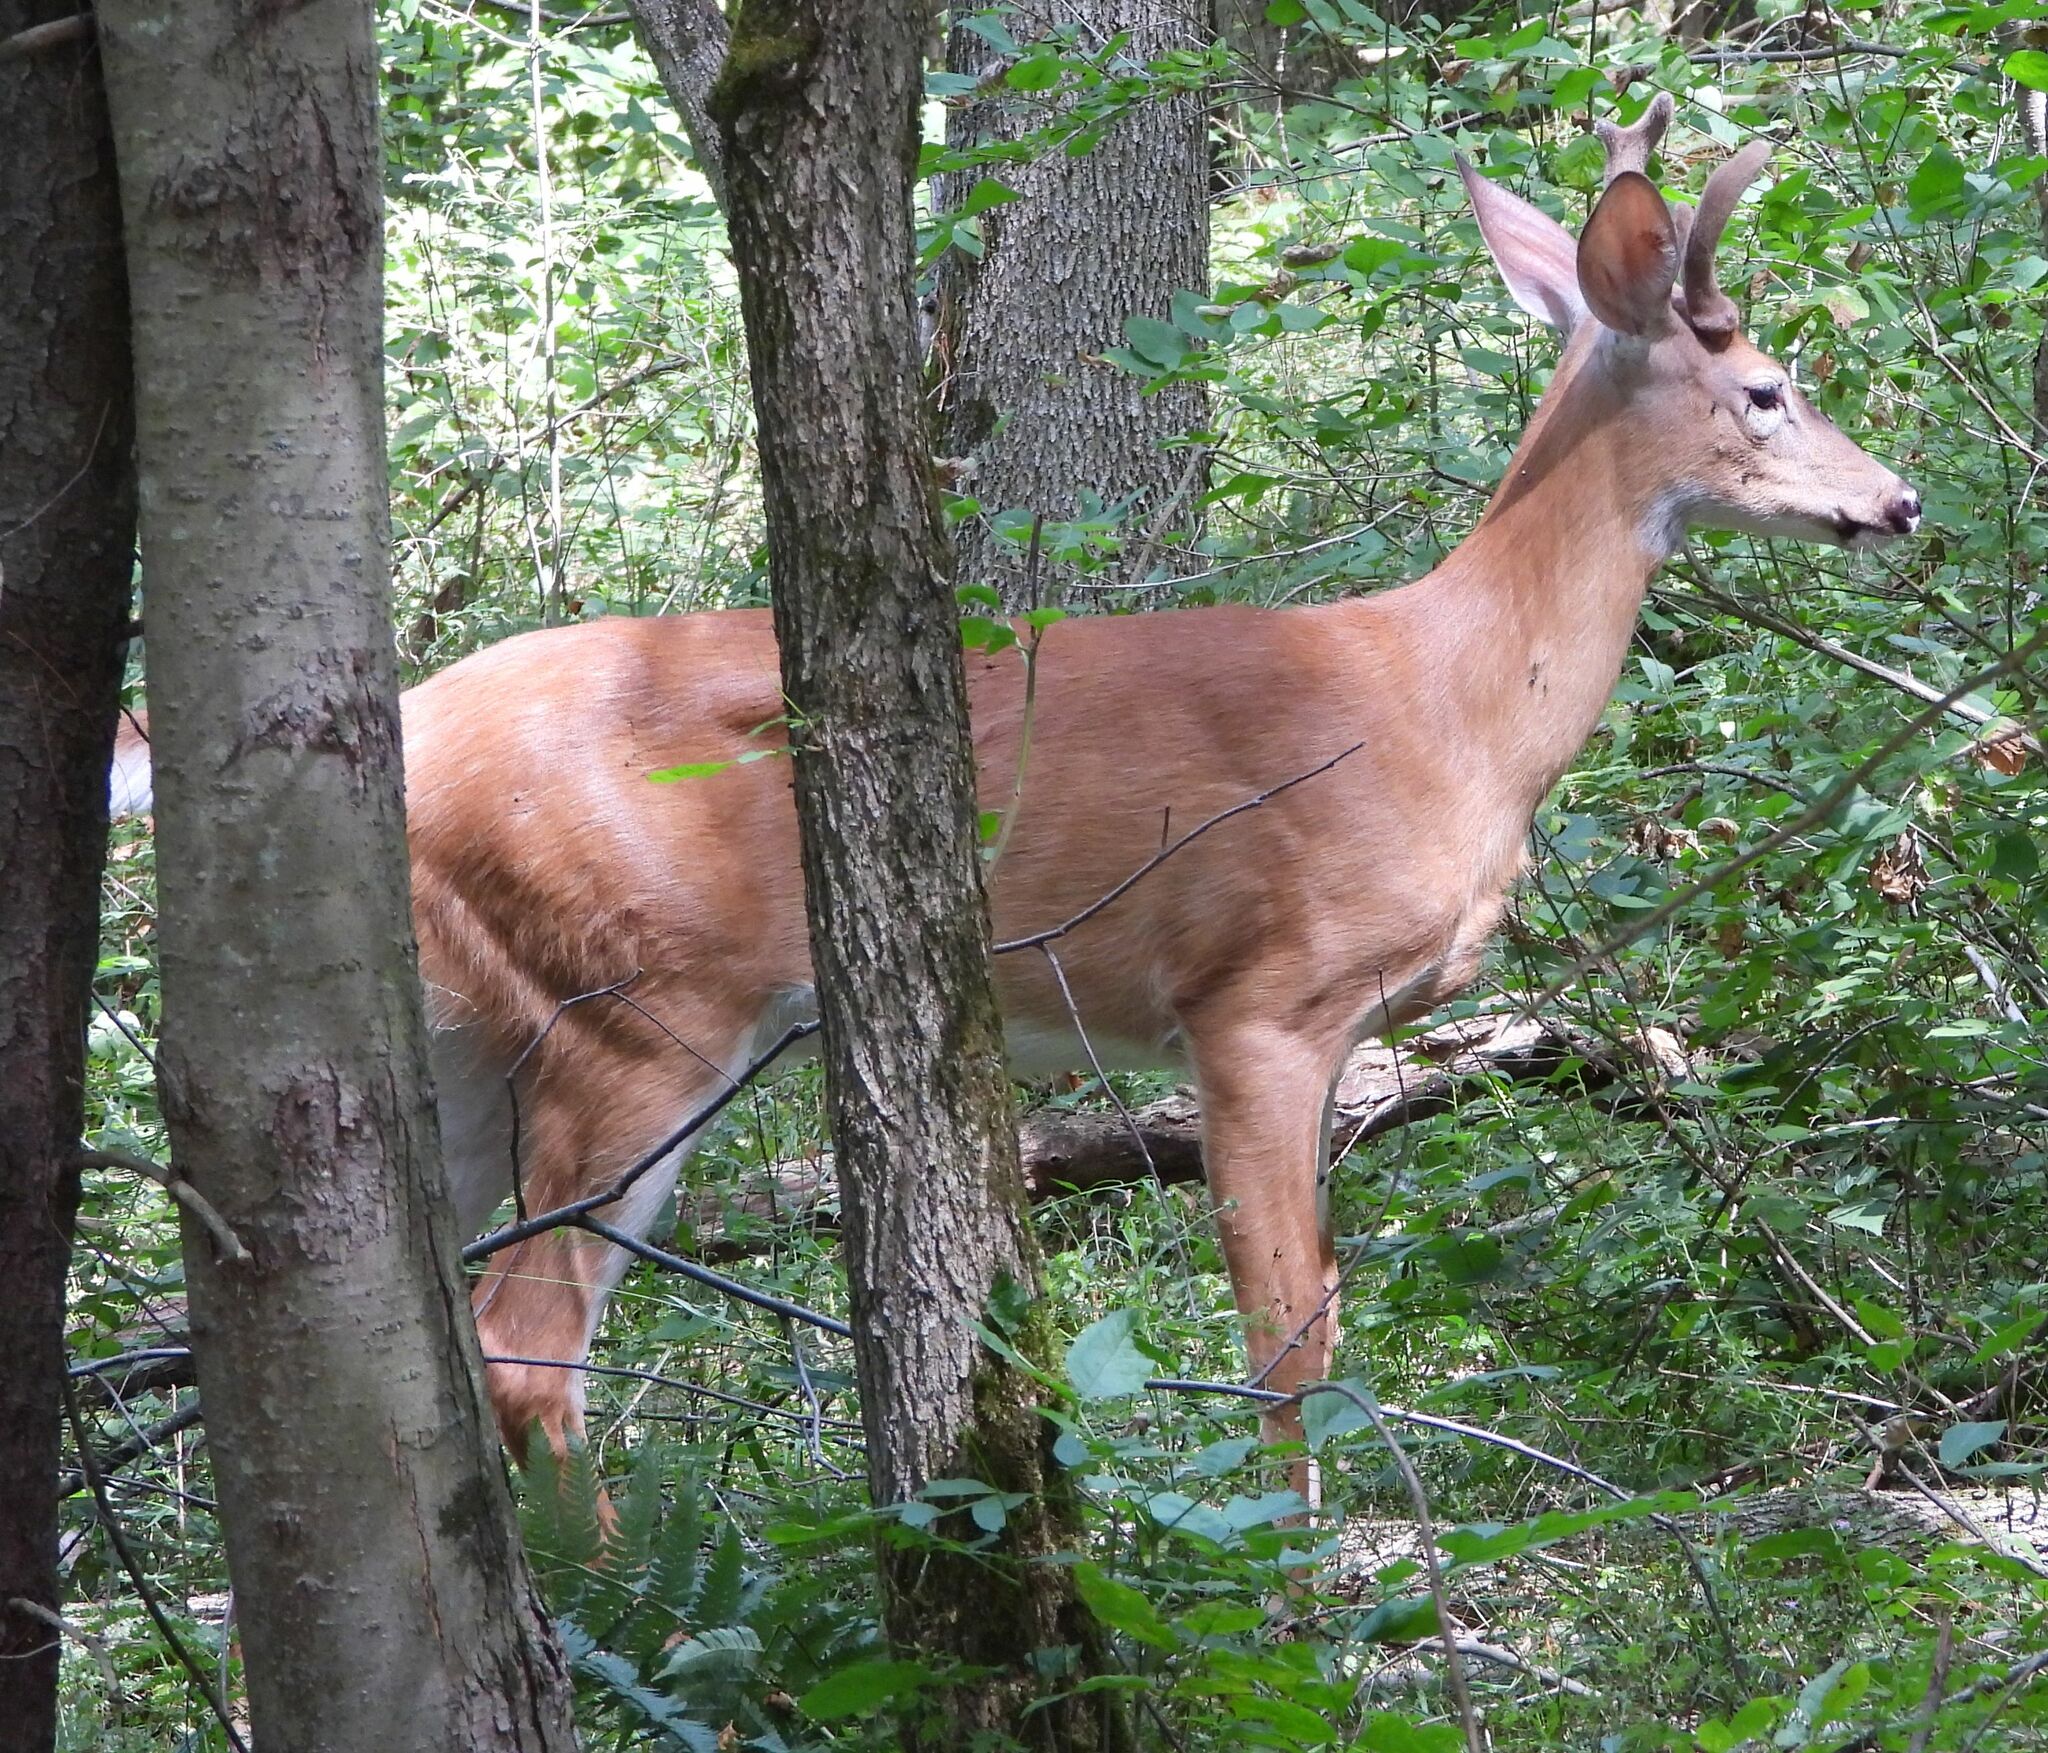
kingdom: Animalia
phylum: Chordata
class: Mammalia
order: Artiodactyla
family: Cervidae
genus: Odocoileus
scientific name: Odocoileus virginianus
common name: White-tailed deer
